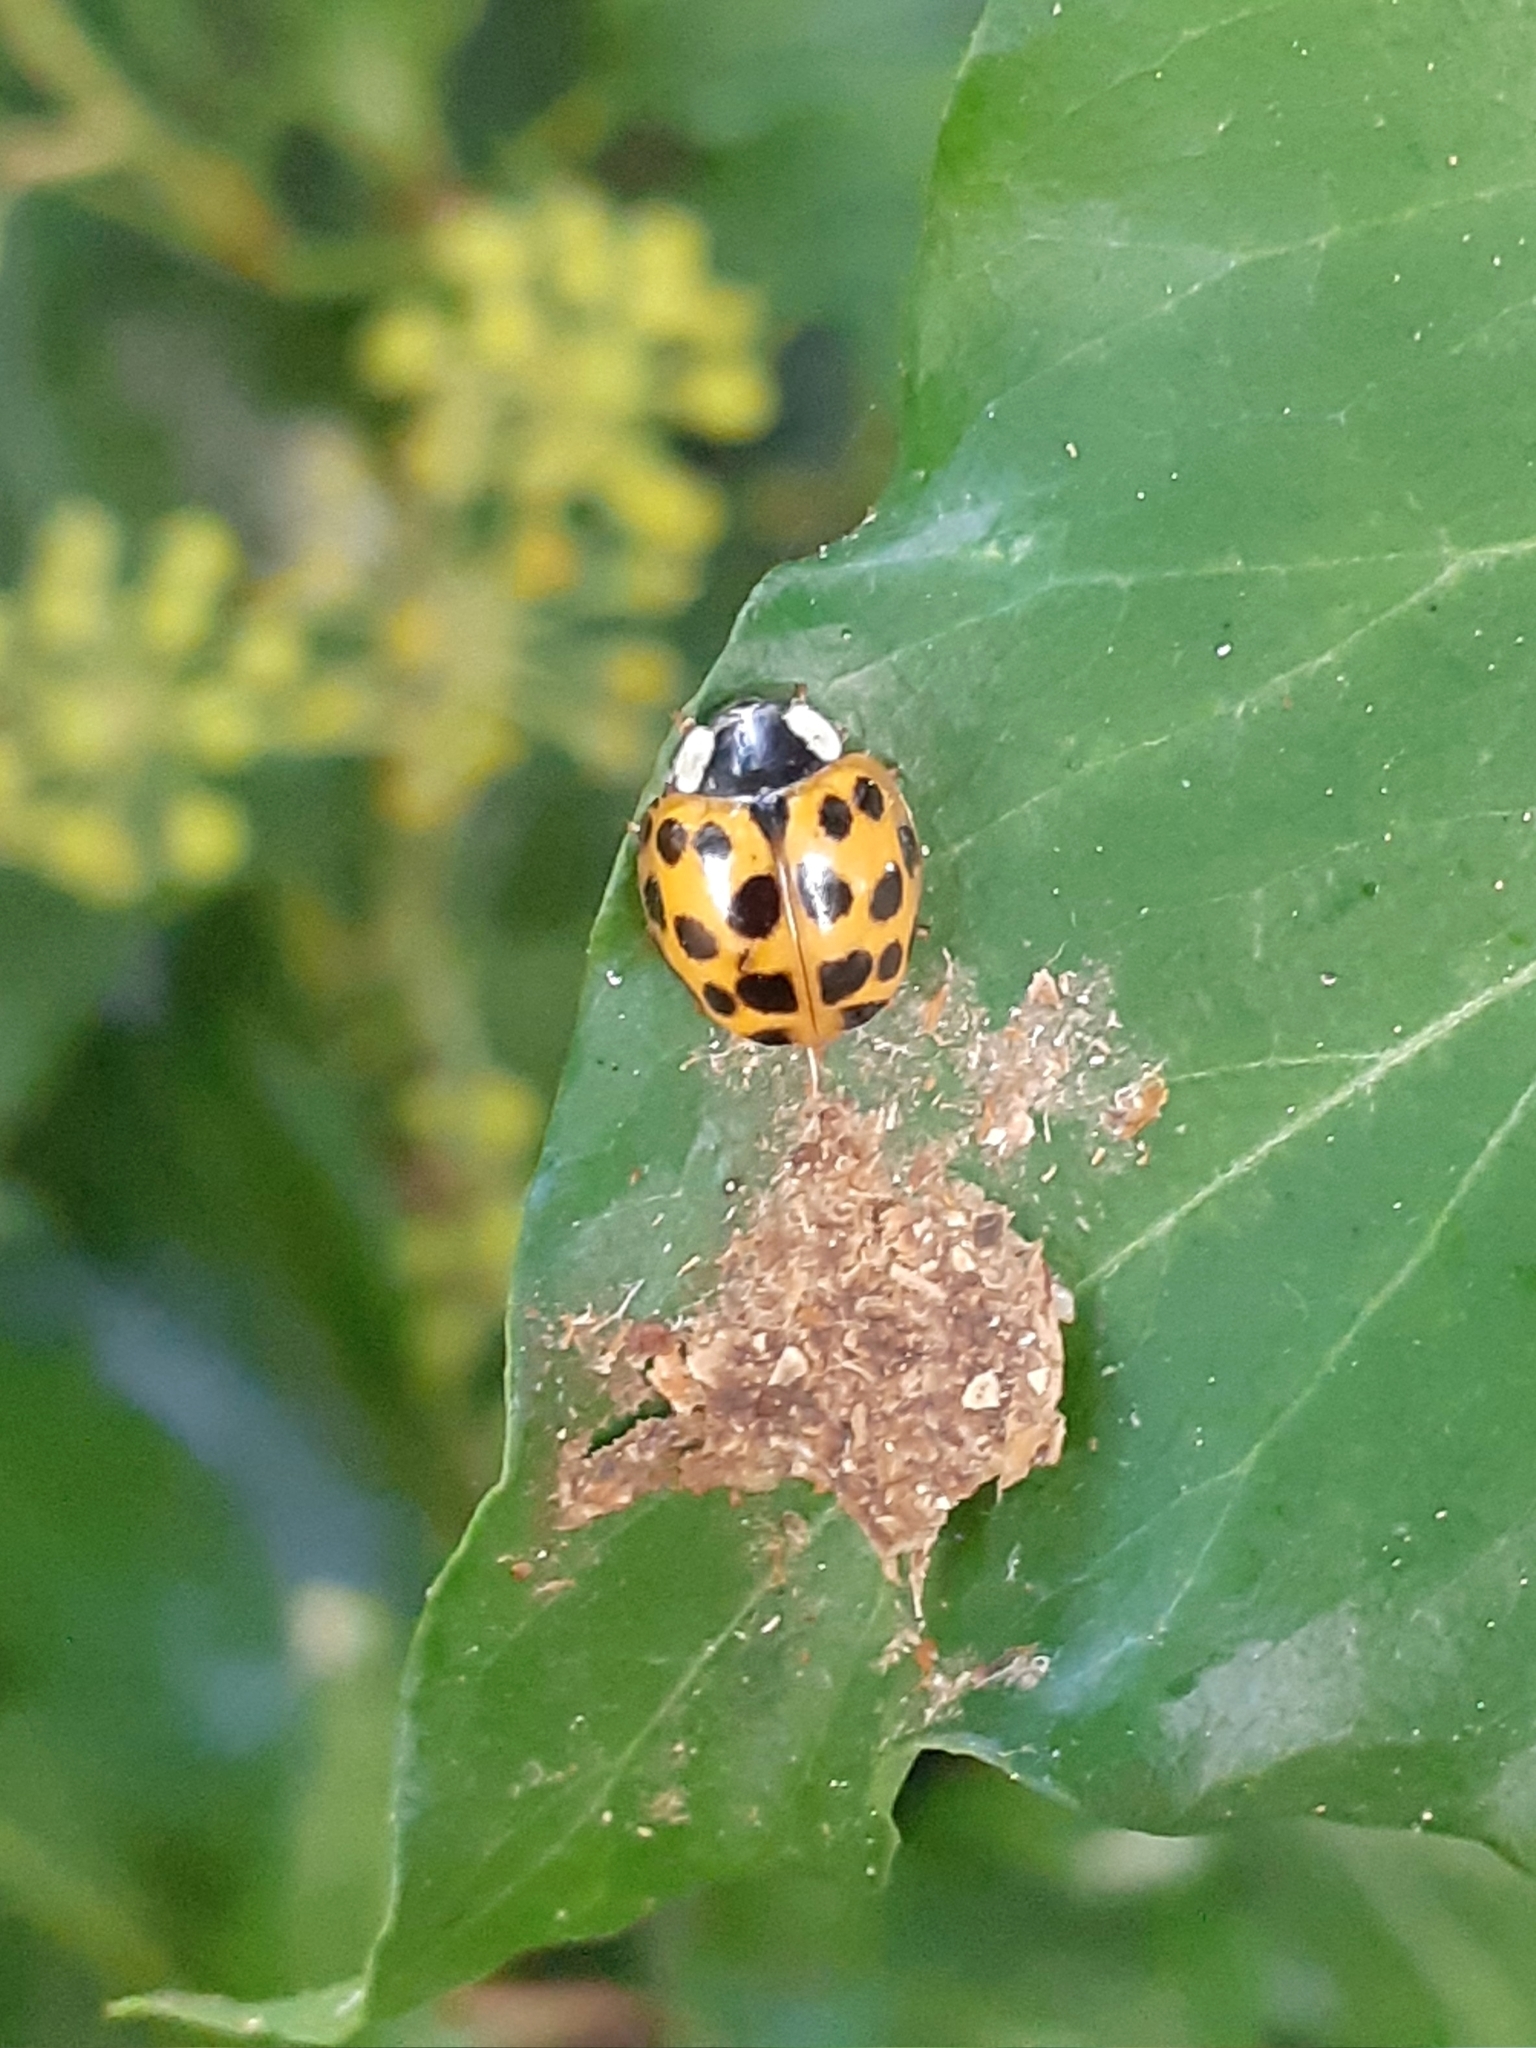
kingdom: Animalia
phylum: Arthropoda
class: Insecta
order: Coleoptera
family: Coccinellidae
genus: Harmonia
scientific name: Harmonia axyridis
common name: Harlequin ladybird
